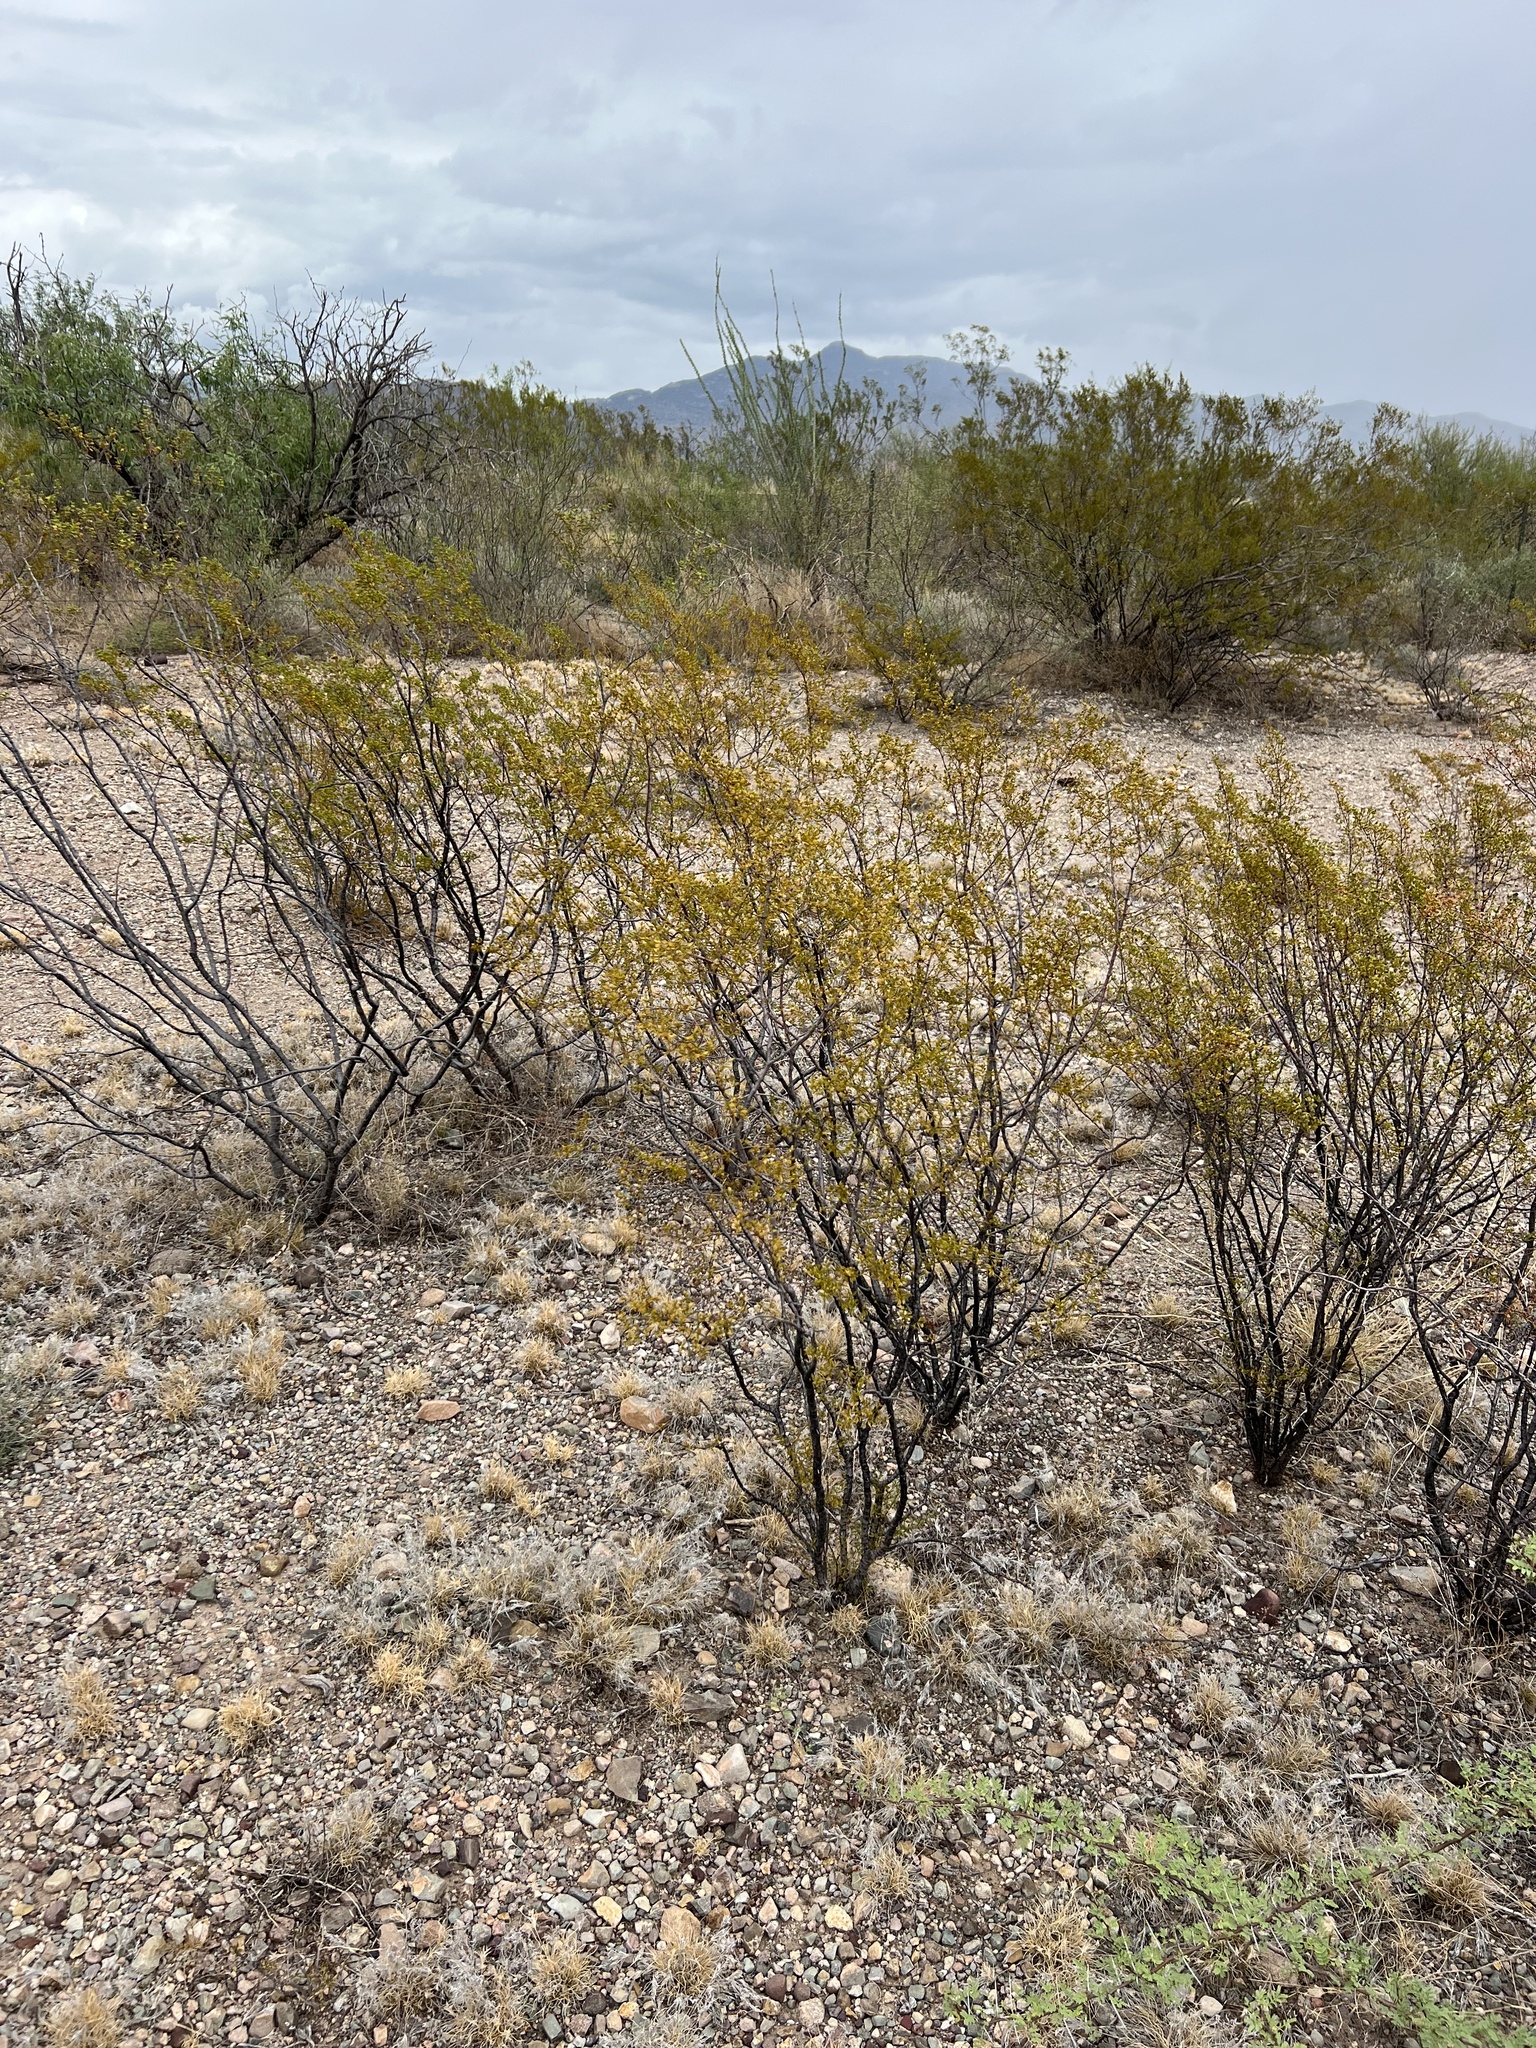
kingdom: Plantae
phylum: Tracheophyta
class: Magnoliopsida
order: Zygophyllales
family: Zygophyllaceae
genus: Larrea
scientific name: Larrea tridentata
